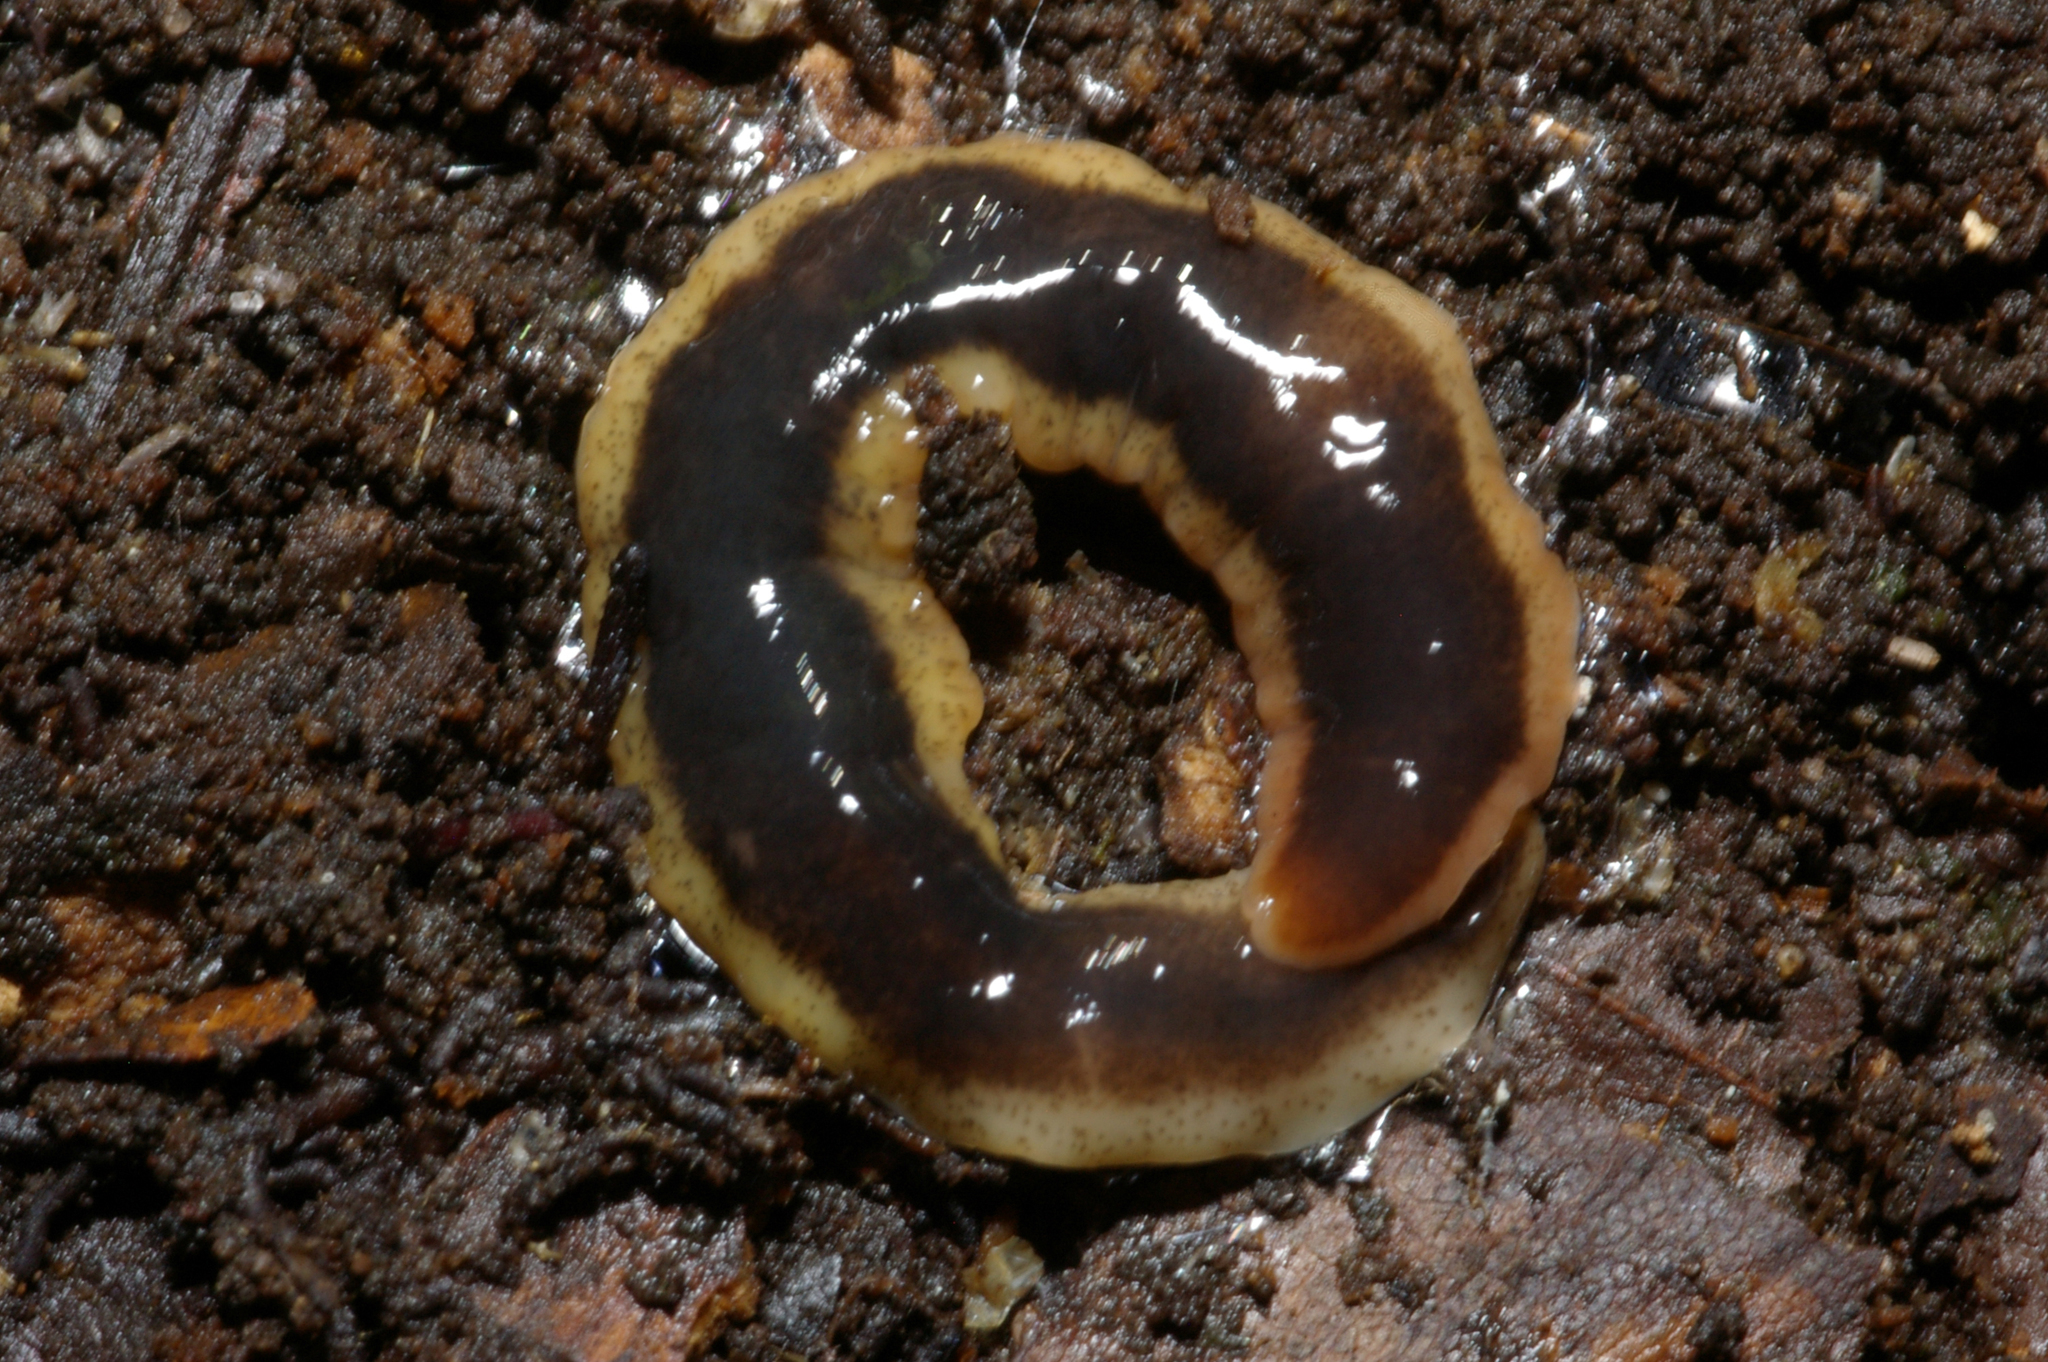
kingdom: Animalia
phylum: Platyhelminthes
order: Tricladida
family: Geoplanidae
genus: Arthurdendyus
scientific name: Arthurdendyus triangulatus
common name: New zealand flatworm
